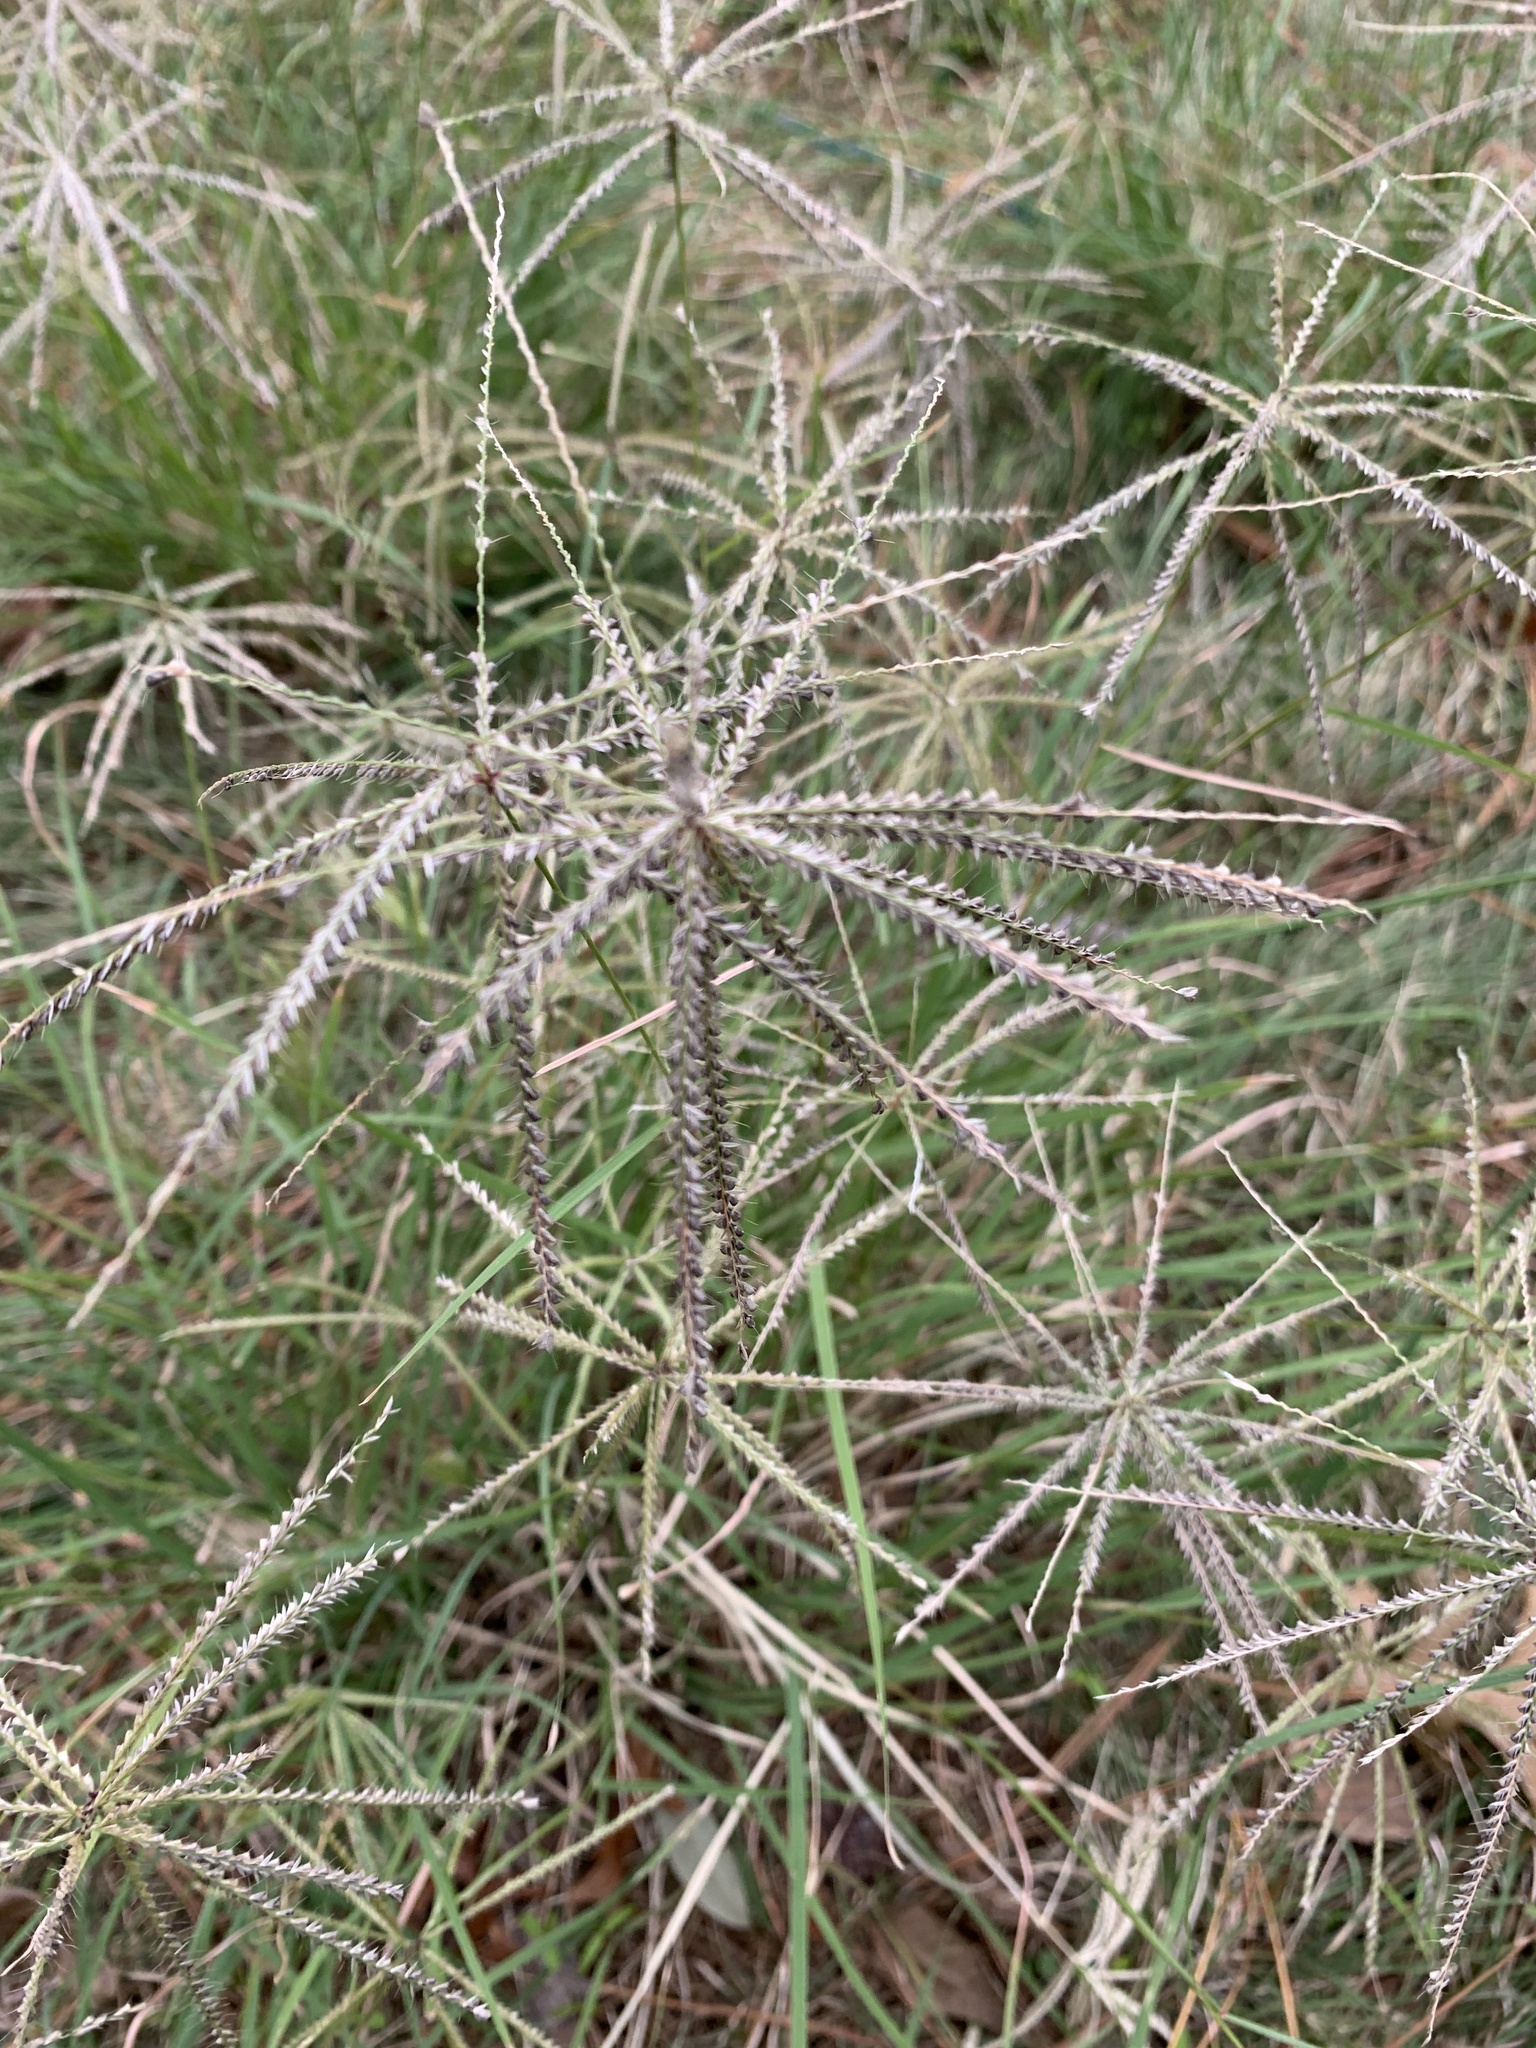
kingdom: Plantae
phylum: Tracheophyta
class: Liliopsida
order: Poales
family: Poaceae
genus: Chloris
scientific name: Chloris subdolichostachya
